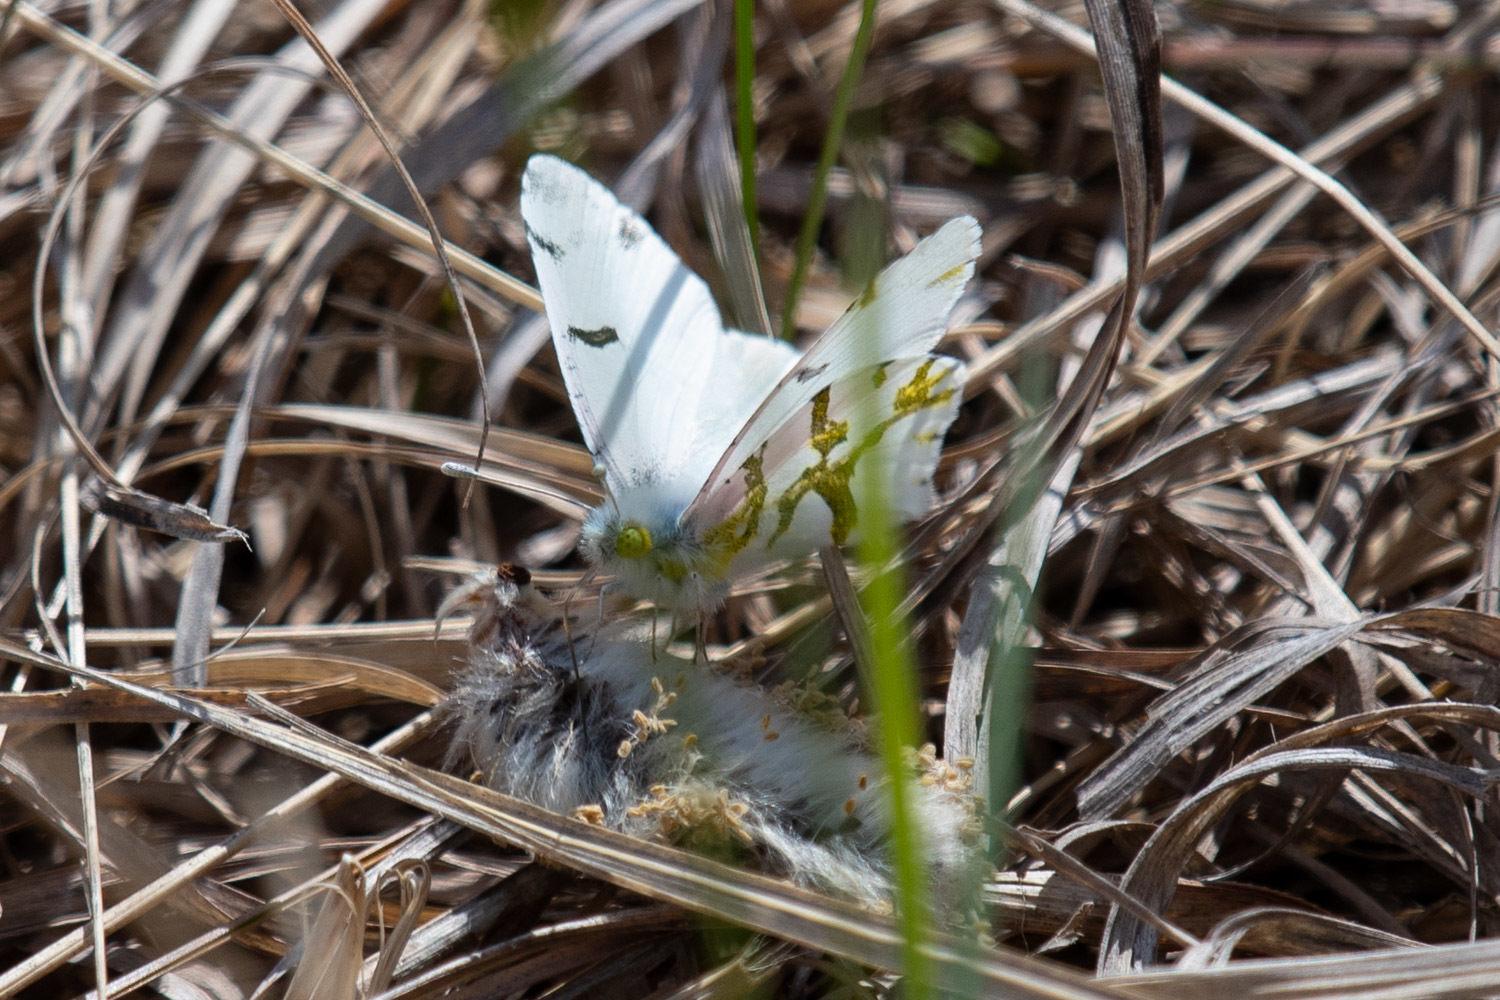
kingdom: Animalia
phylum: Arthropoda
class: Insecta
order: Lepidoptera
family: Pieridae
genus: Euchloe
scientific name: Euchloe olympia
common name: Olympia
